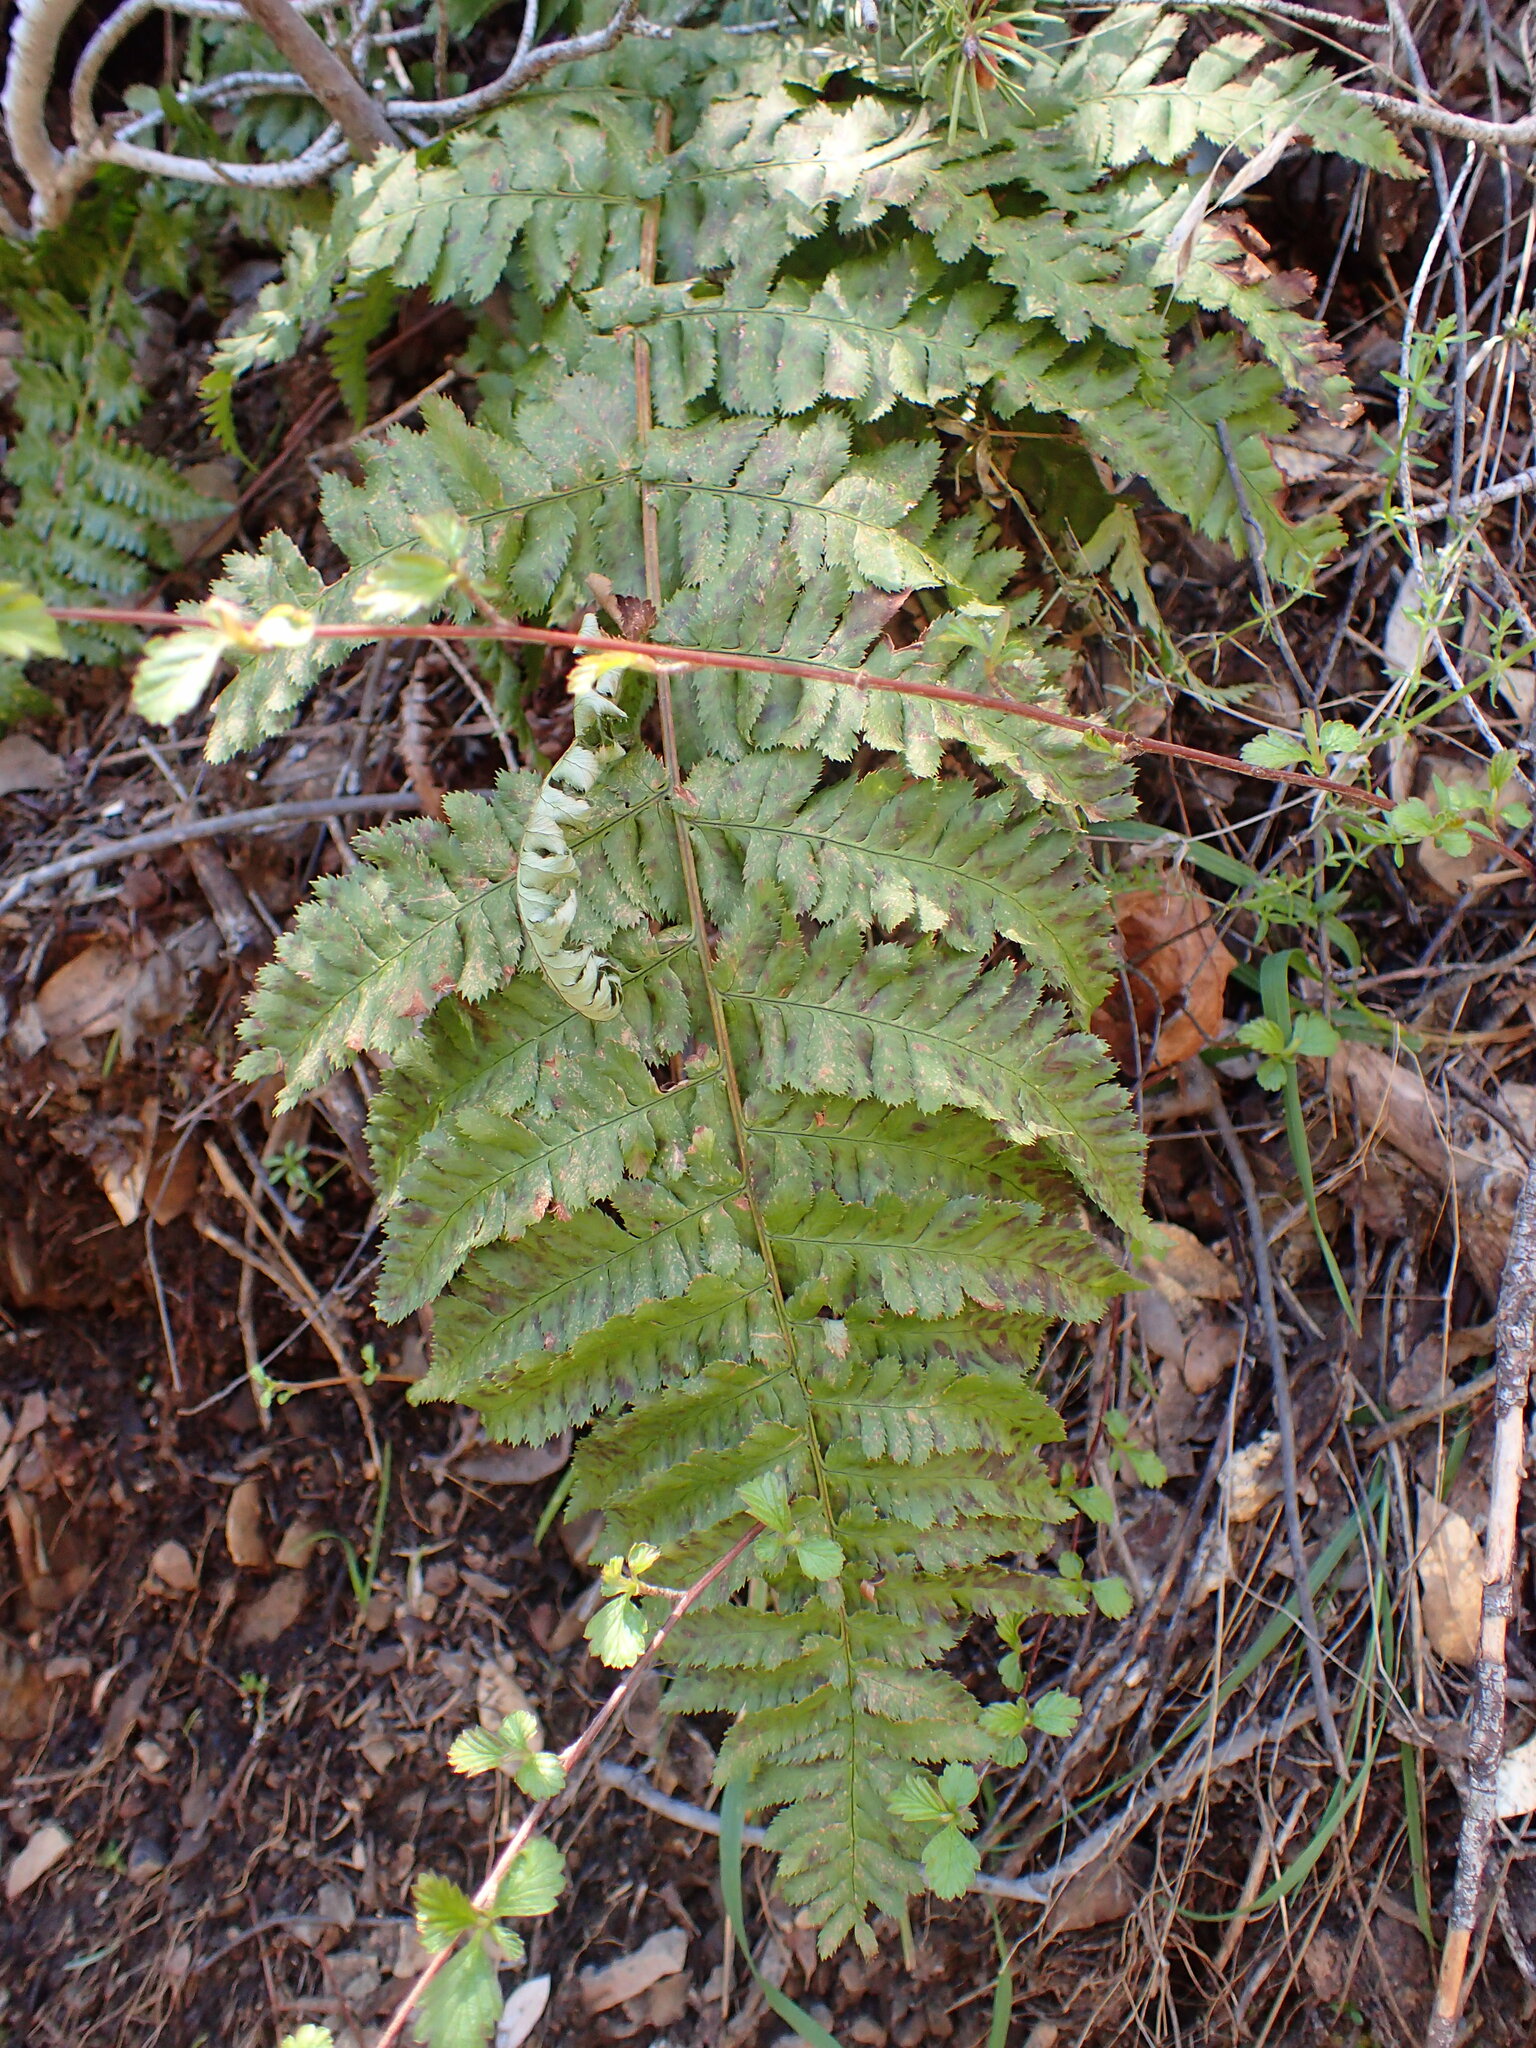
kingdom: Plantae
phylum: Tracheophyta
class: Polypodiopsida
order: Polypodiales
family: Dryopteridaceae
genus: Dryopteris
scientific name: Dryopteris arguta
